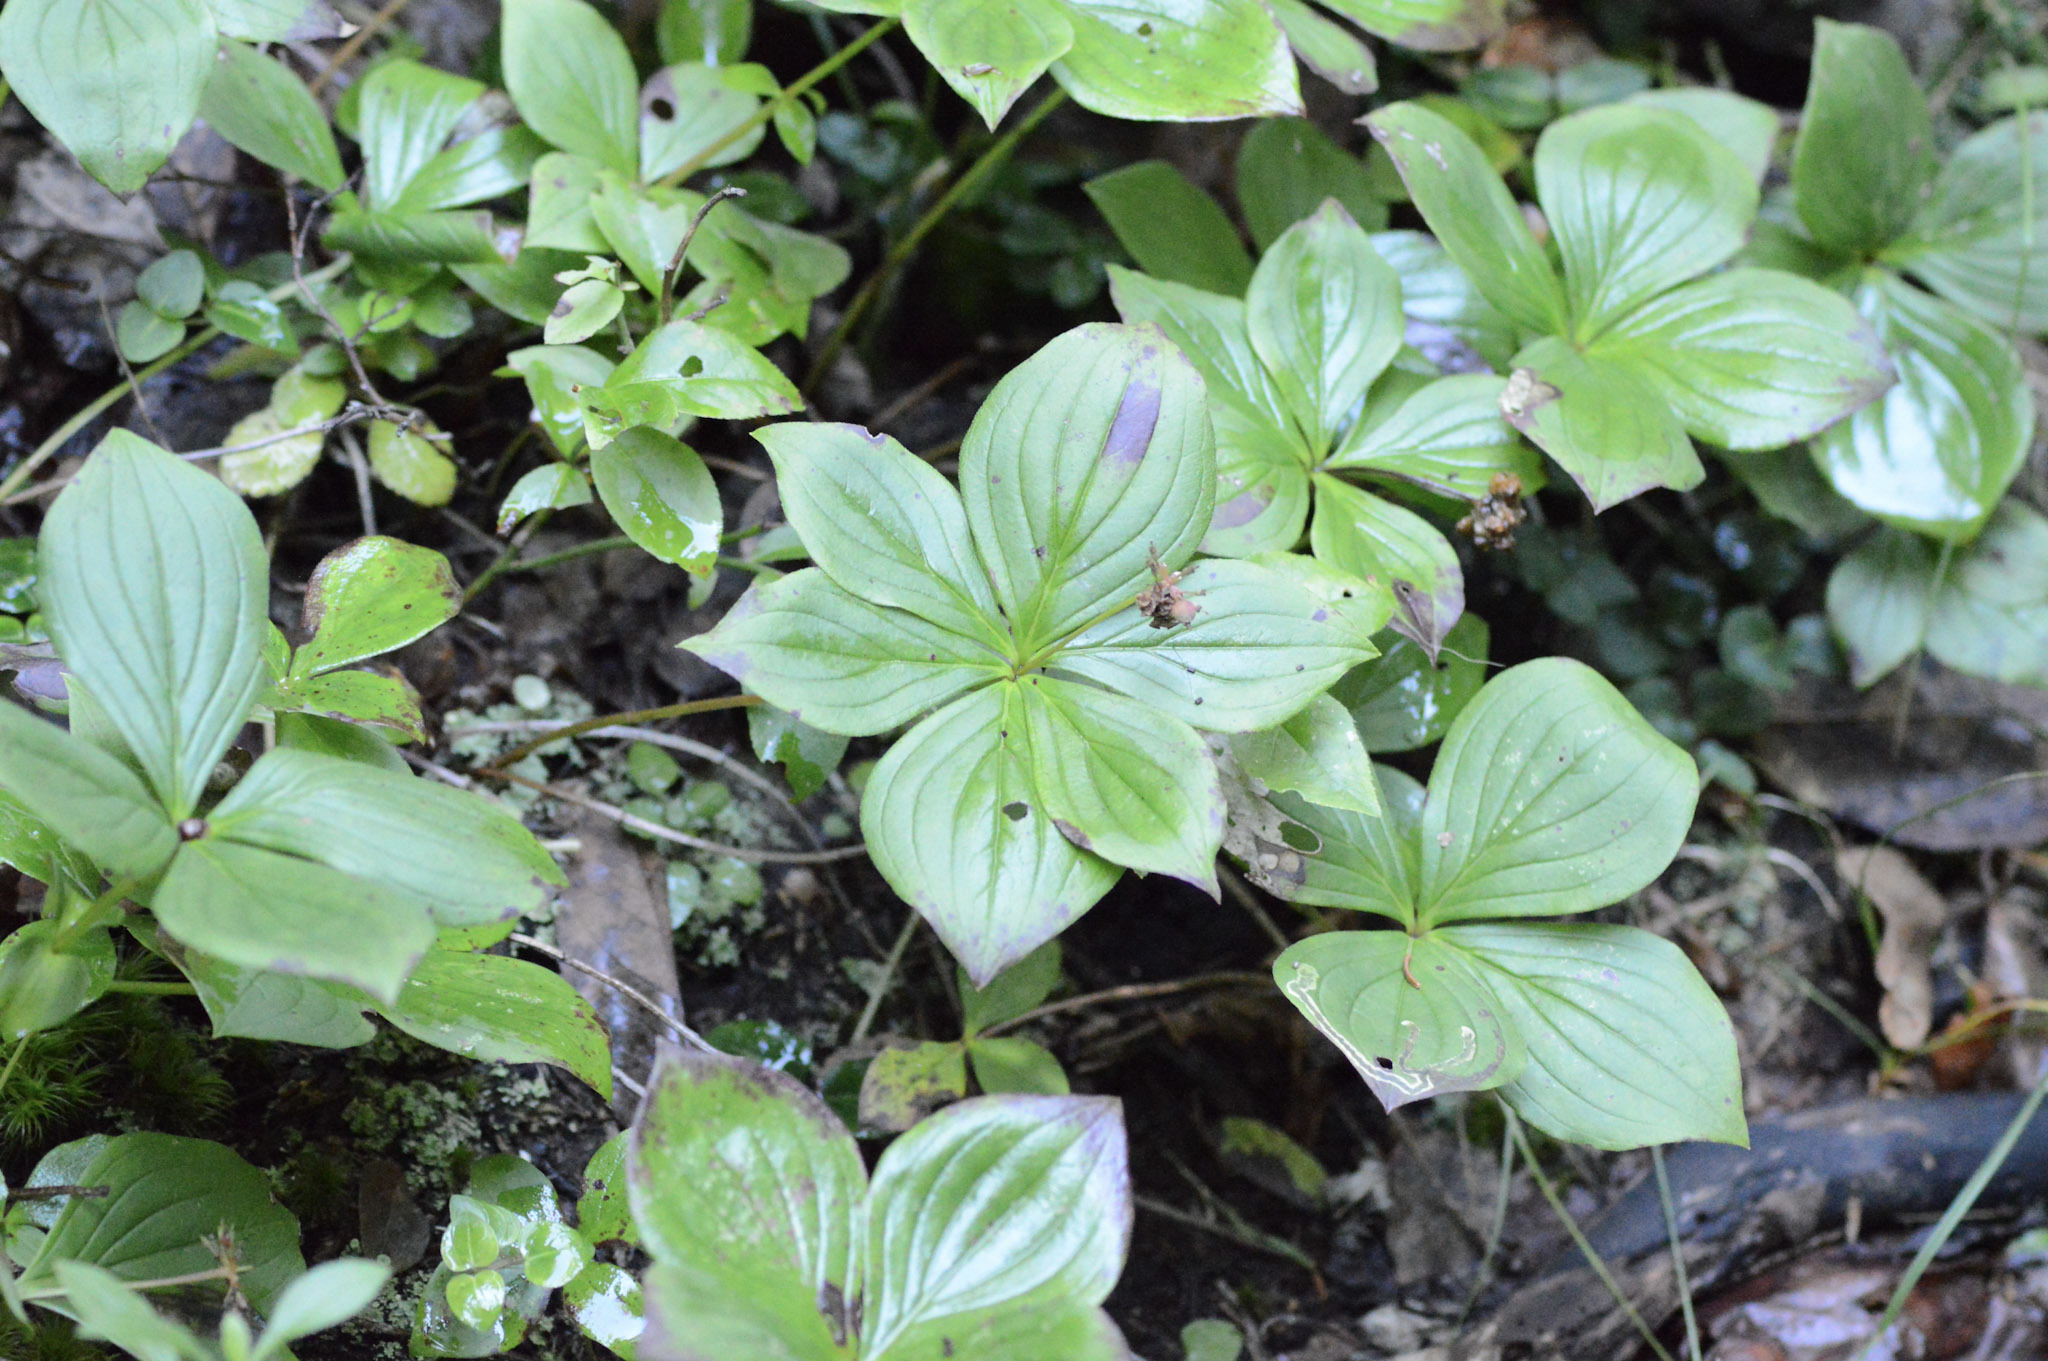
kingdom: Plantae
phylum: Tracheophyta
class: Magnoliopsida
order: Cornales
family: Cornaceae
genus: Cornus
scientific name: Cornus canadensis
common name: Creeping dogwood
